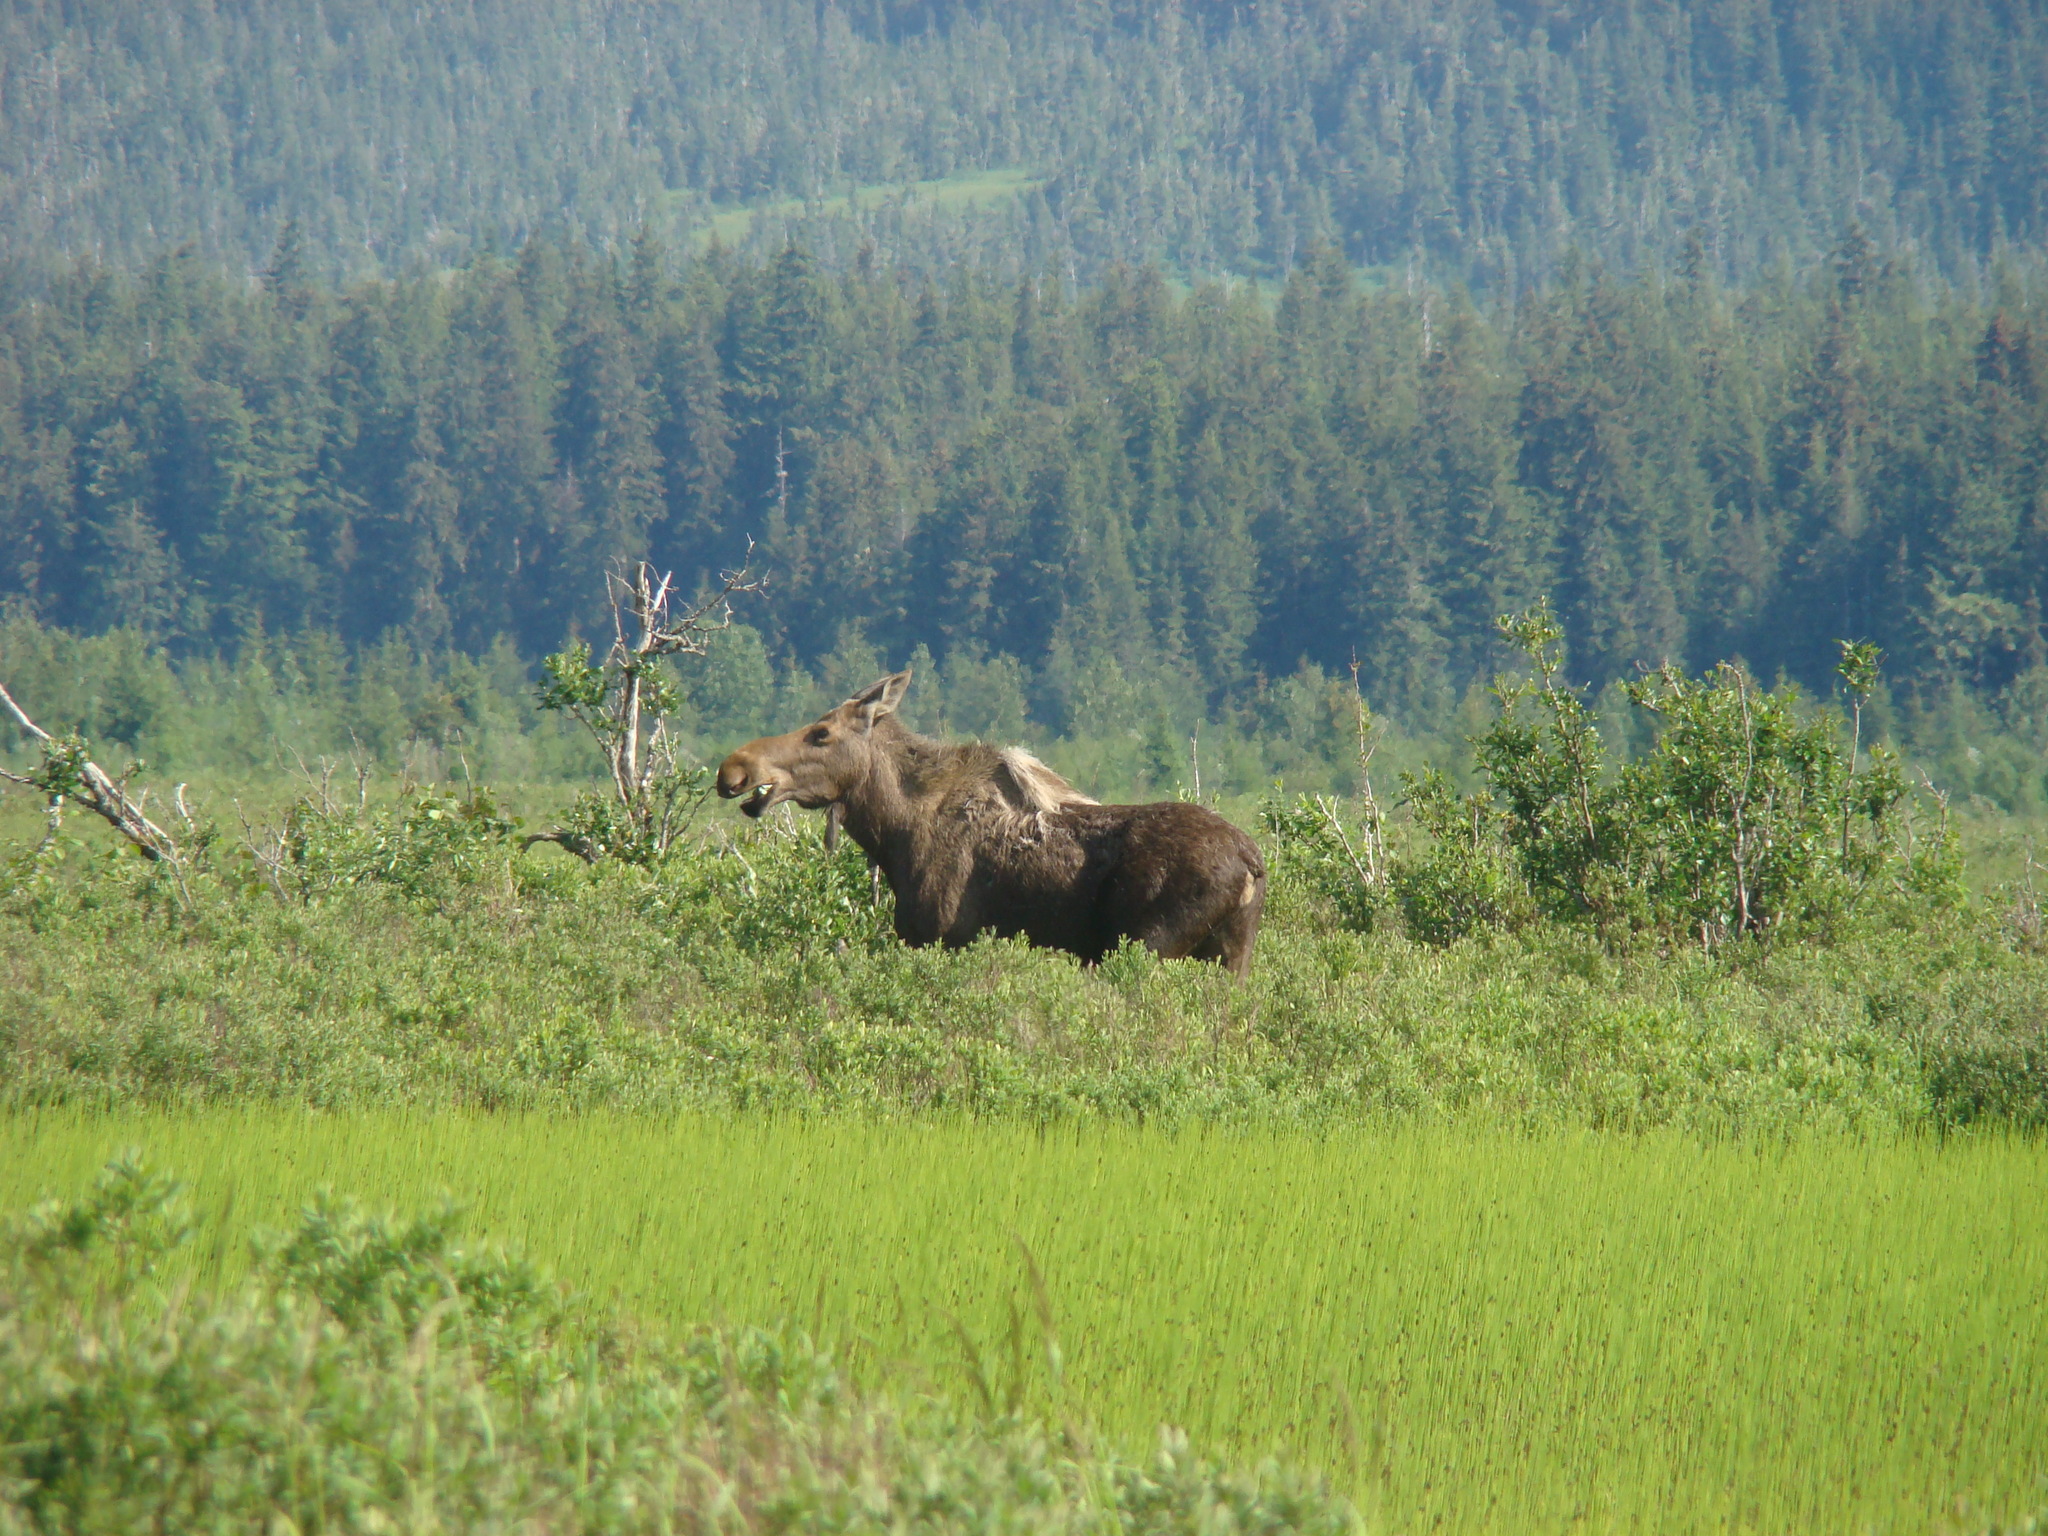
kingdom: Animalia
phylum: Chordata
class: Mammalia
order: Artiodactyla
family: Cervidae
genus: Alces
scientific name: Alces alces
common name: Moose
